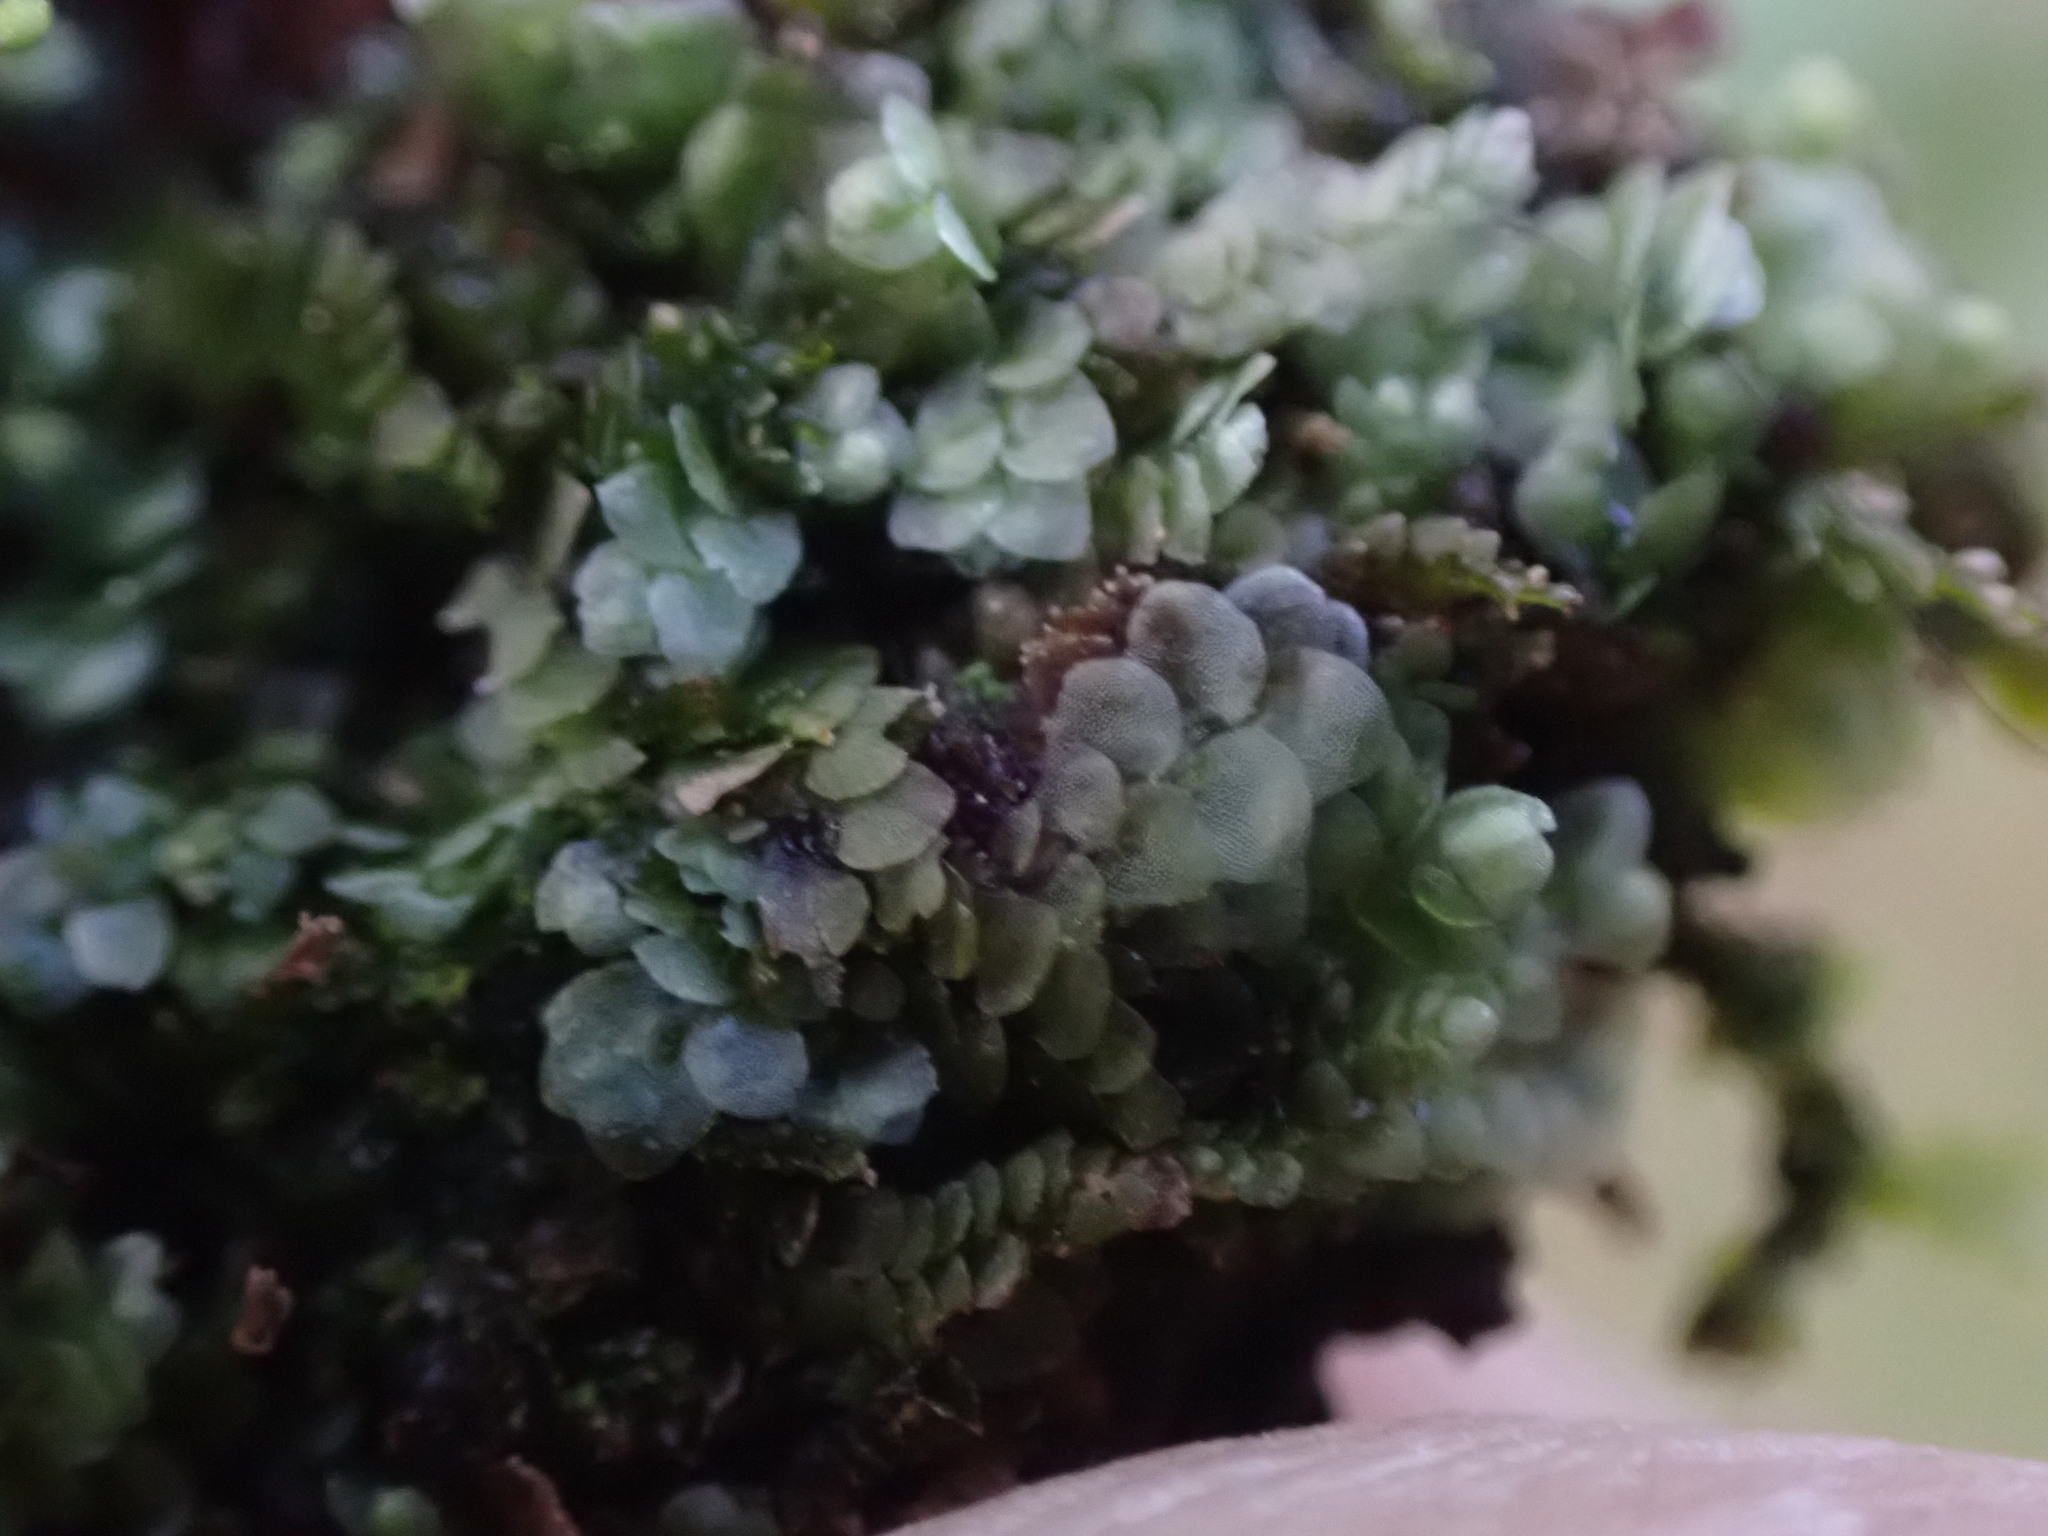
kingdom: Plantae
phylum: Marchantiophyta
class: Jungermanniopsida
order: Jungermanniales
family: Calypogeiaceae
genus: Calypogeia
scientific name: Calypogeia azurea
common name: Blue pouchwort
